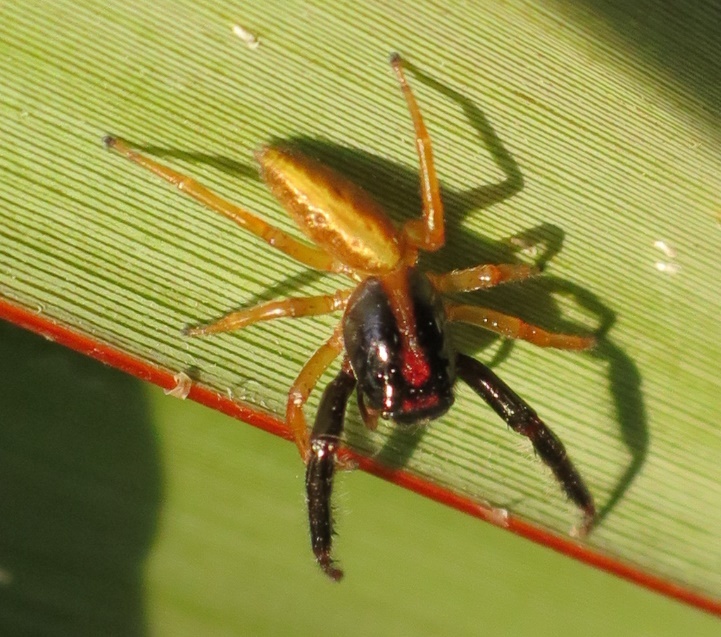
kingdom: Animalia
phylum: Arthropoda
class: Arachnida
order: Araneae
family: Salticidae
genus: Trite
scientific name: Trite planiceps
